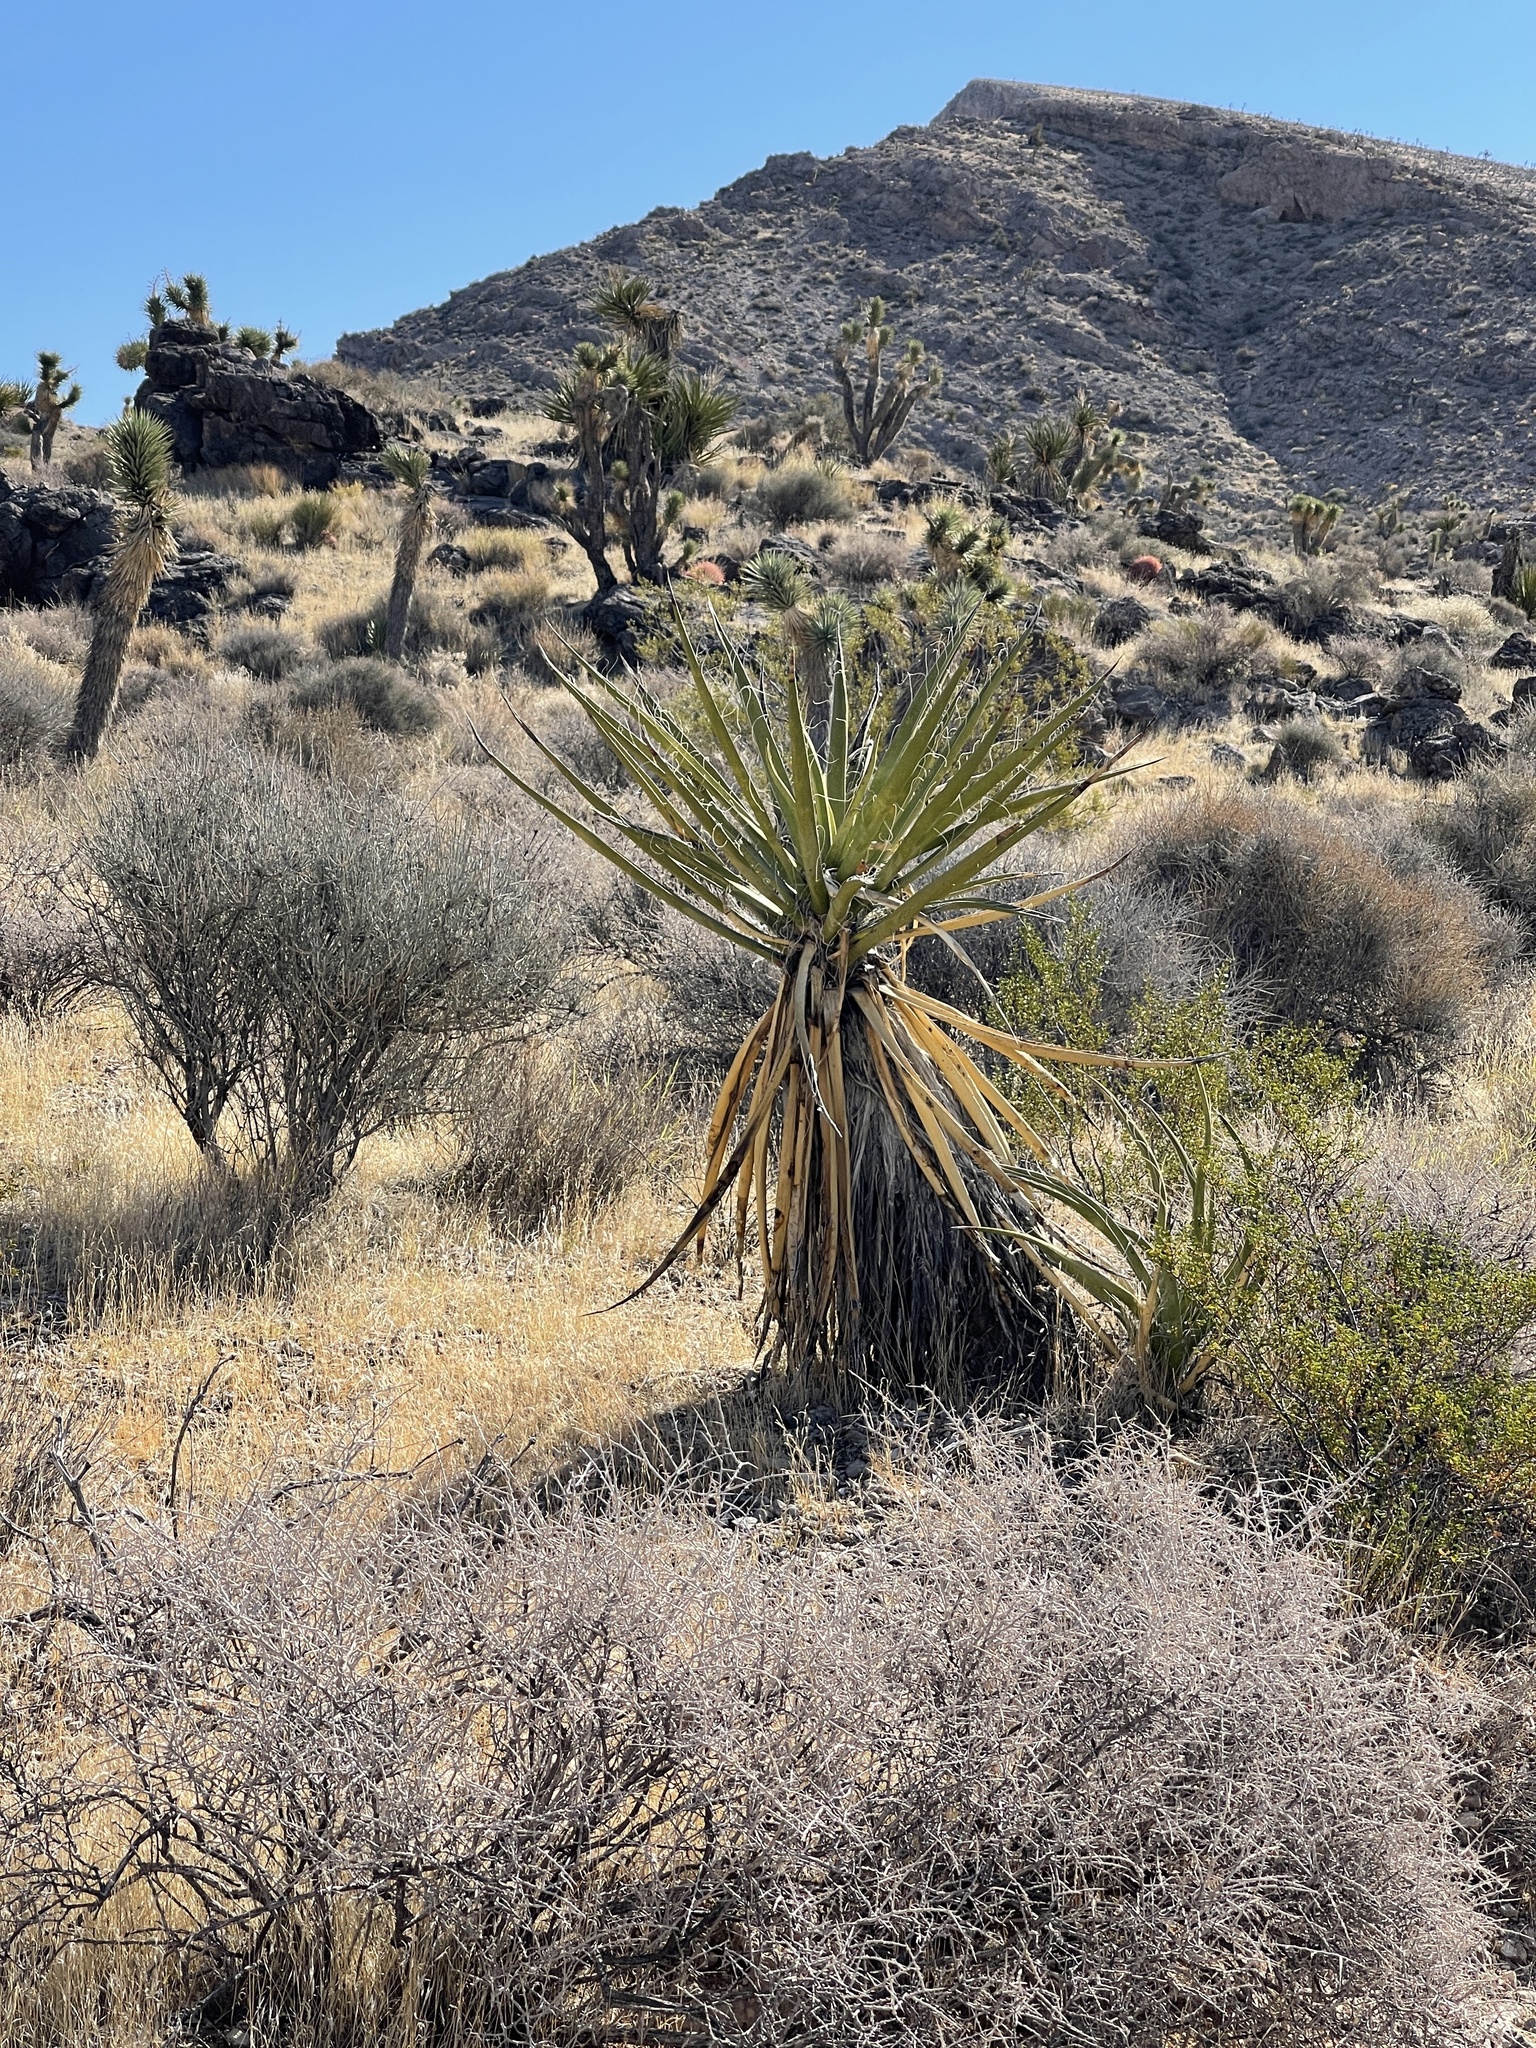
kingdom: Plantae
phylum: Tracheophyta
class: Liliopsida
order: Asparagales
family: Asparagaceae
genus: Yucca
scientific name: Yucca schidigera
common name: Mojave yucca
